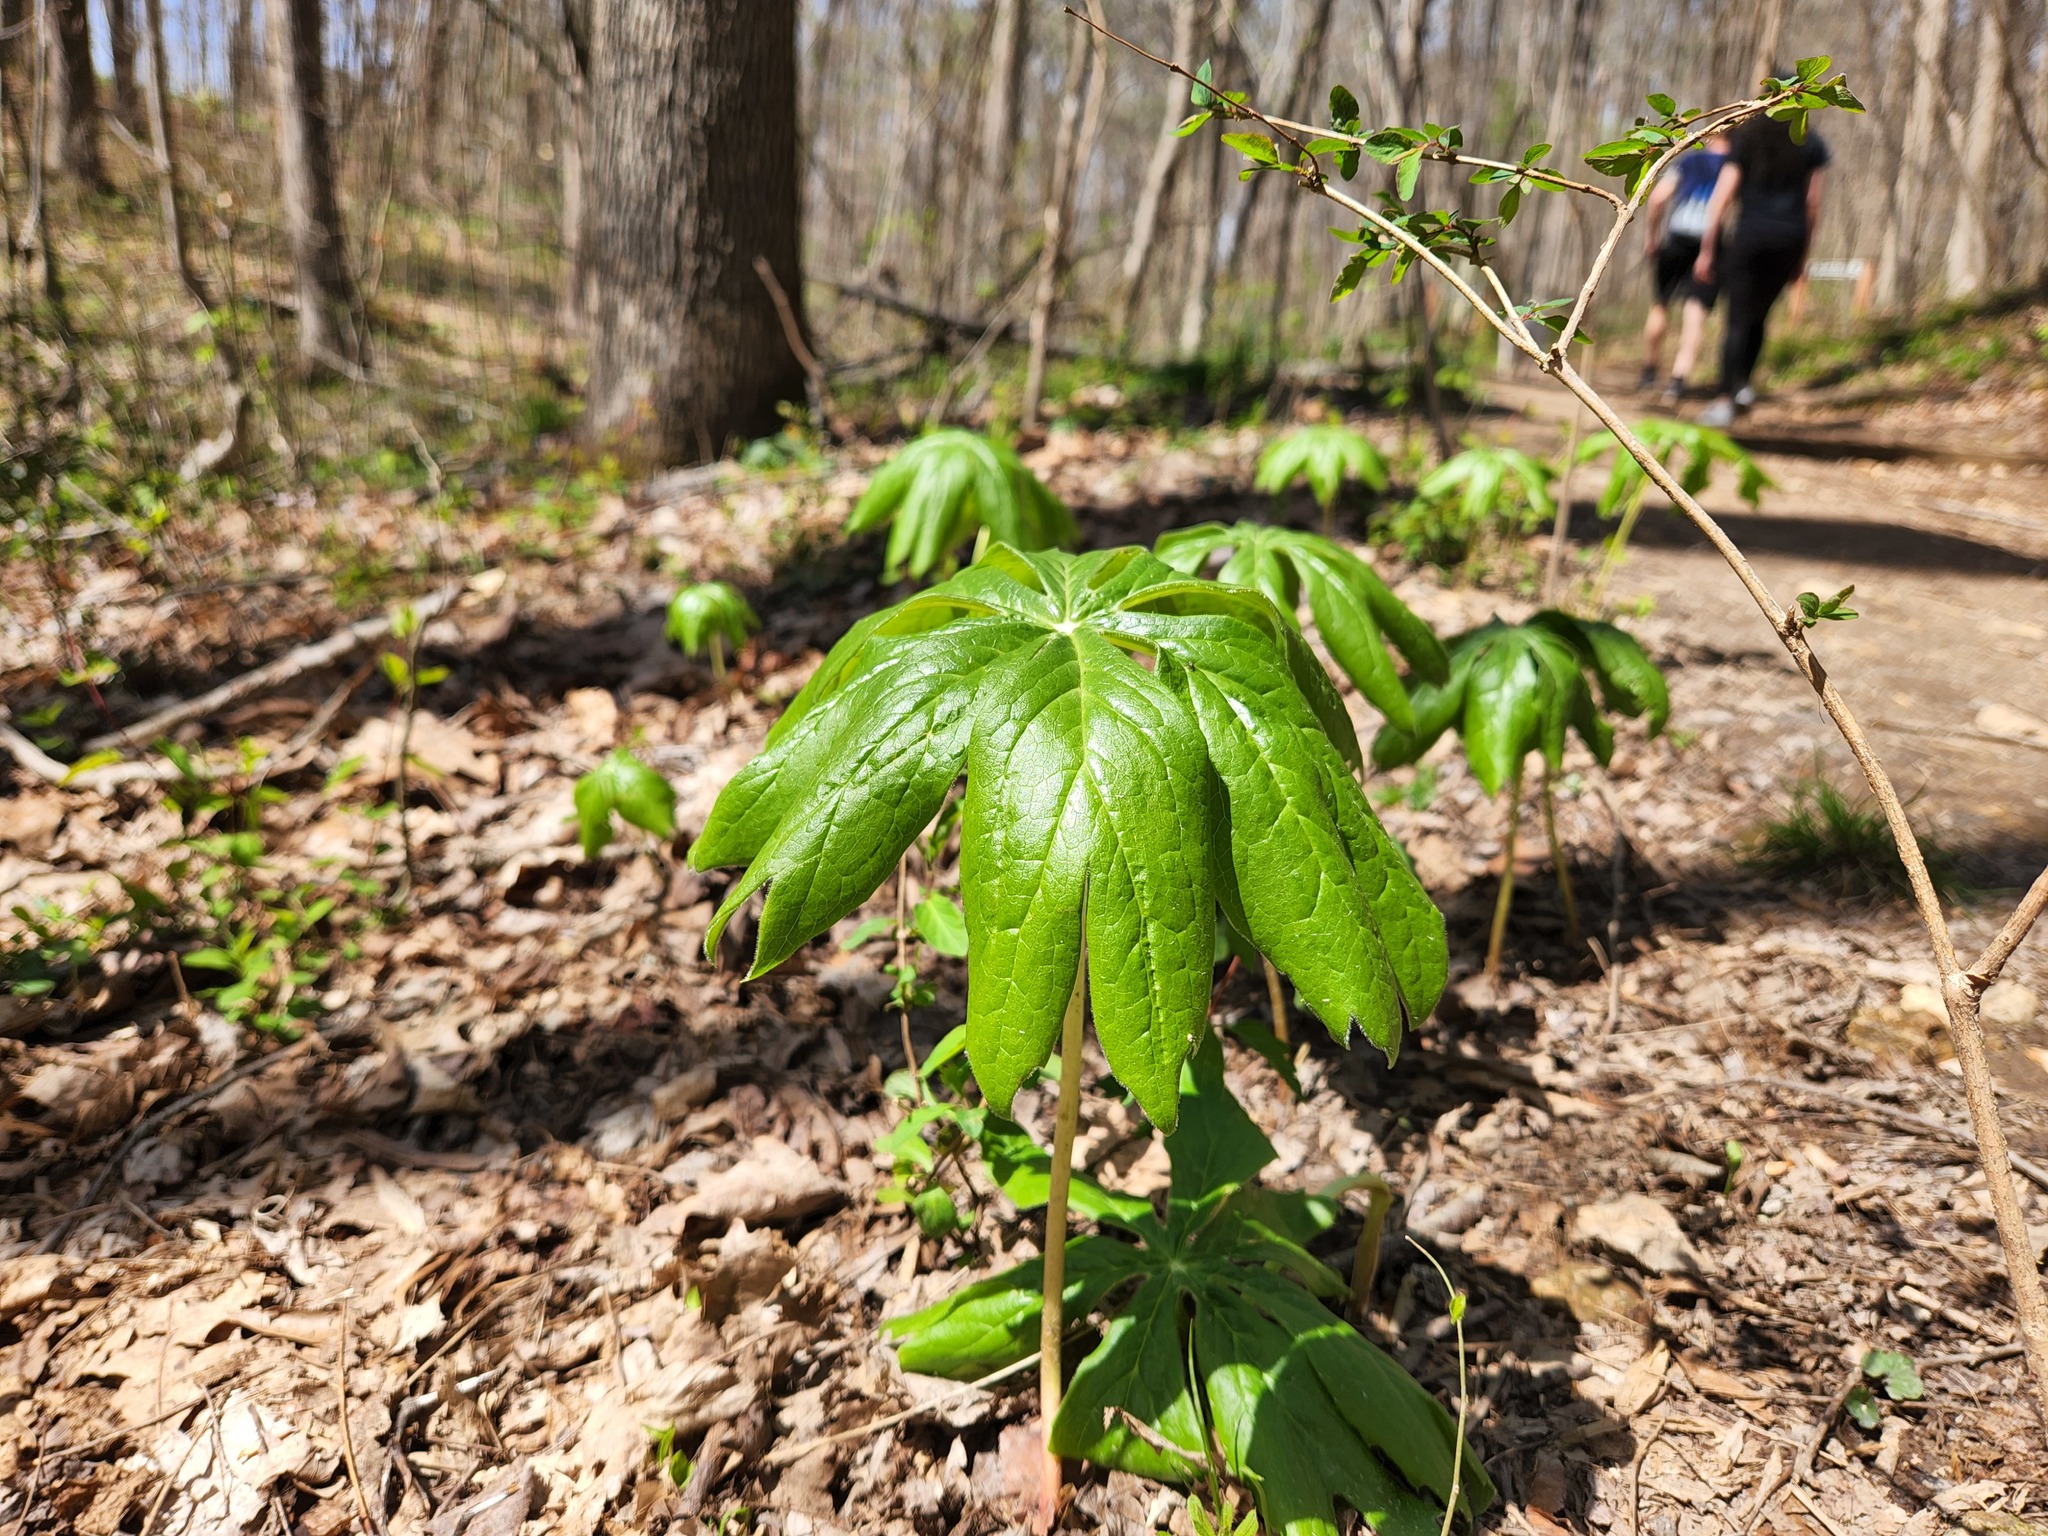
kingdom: Plantae
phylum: Tracheophyta
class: Magnoliopsida
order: Ranunculales
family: Berberidaceae
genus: Podophyllum
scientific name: Podophyllum peltatum
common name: Wild mandrake
